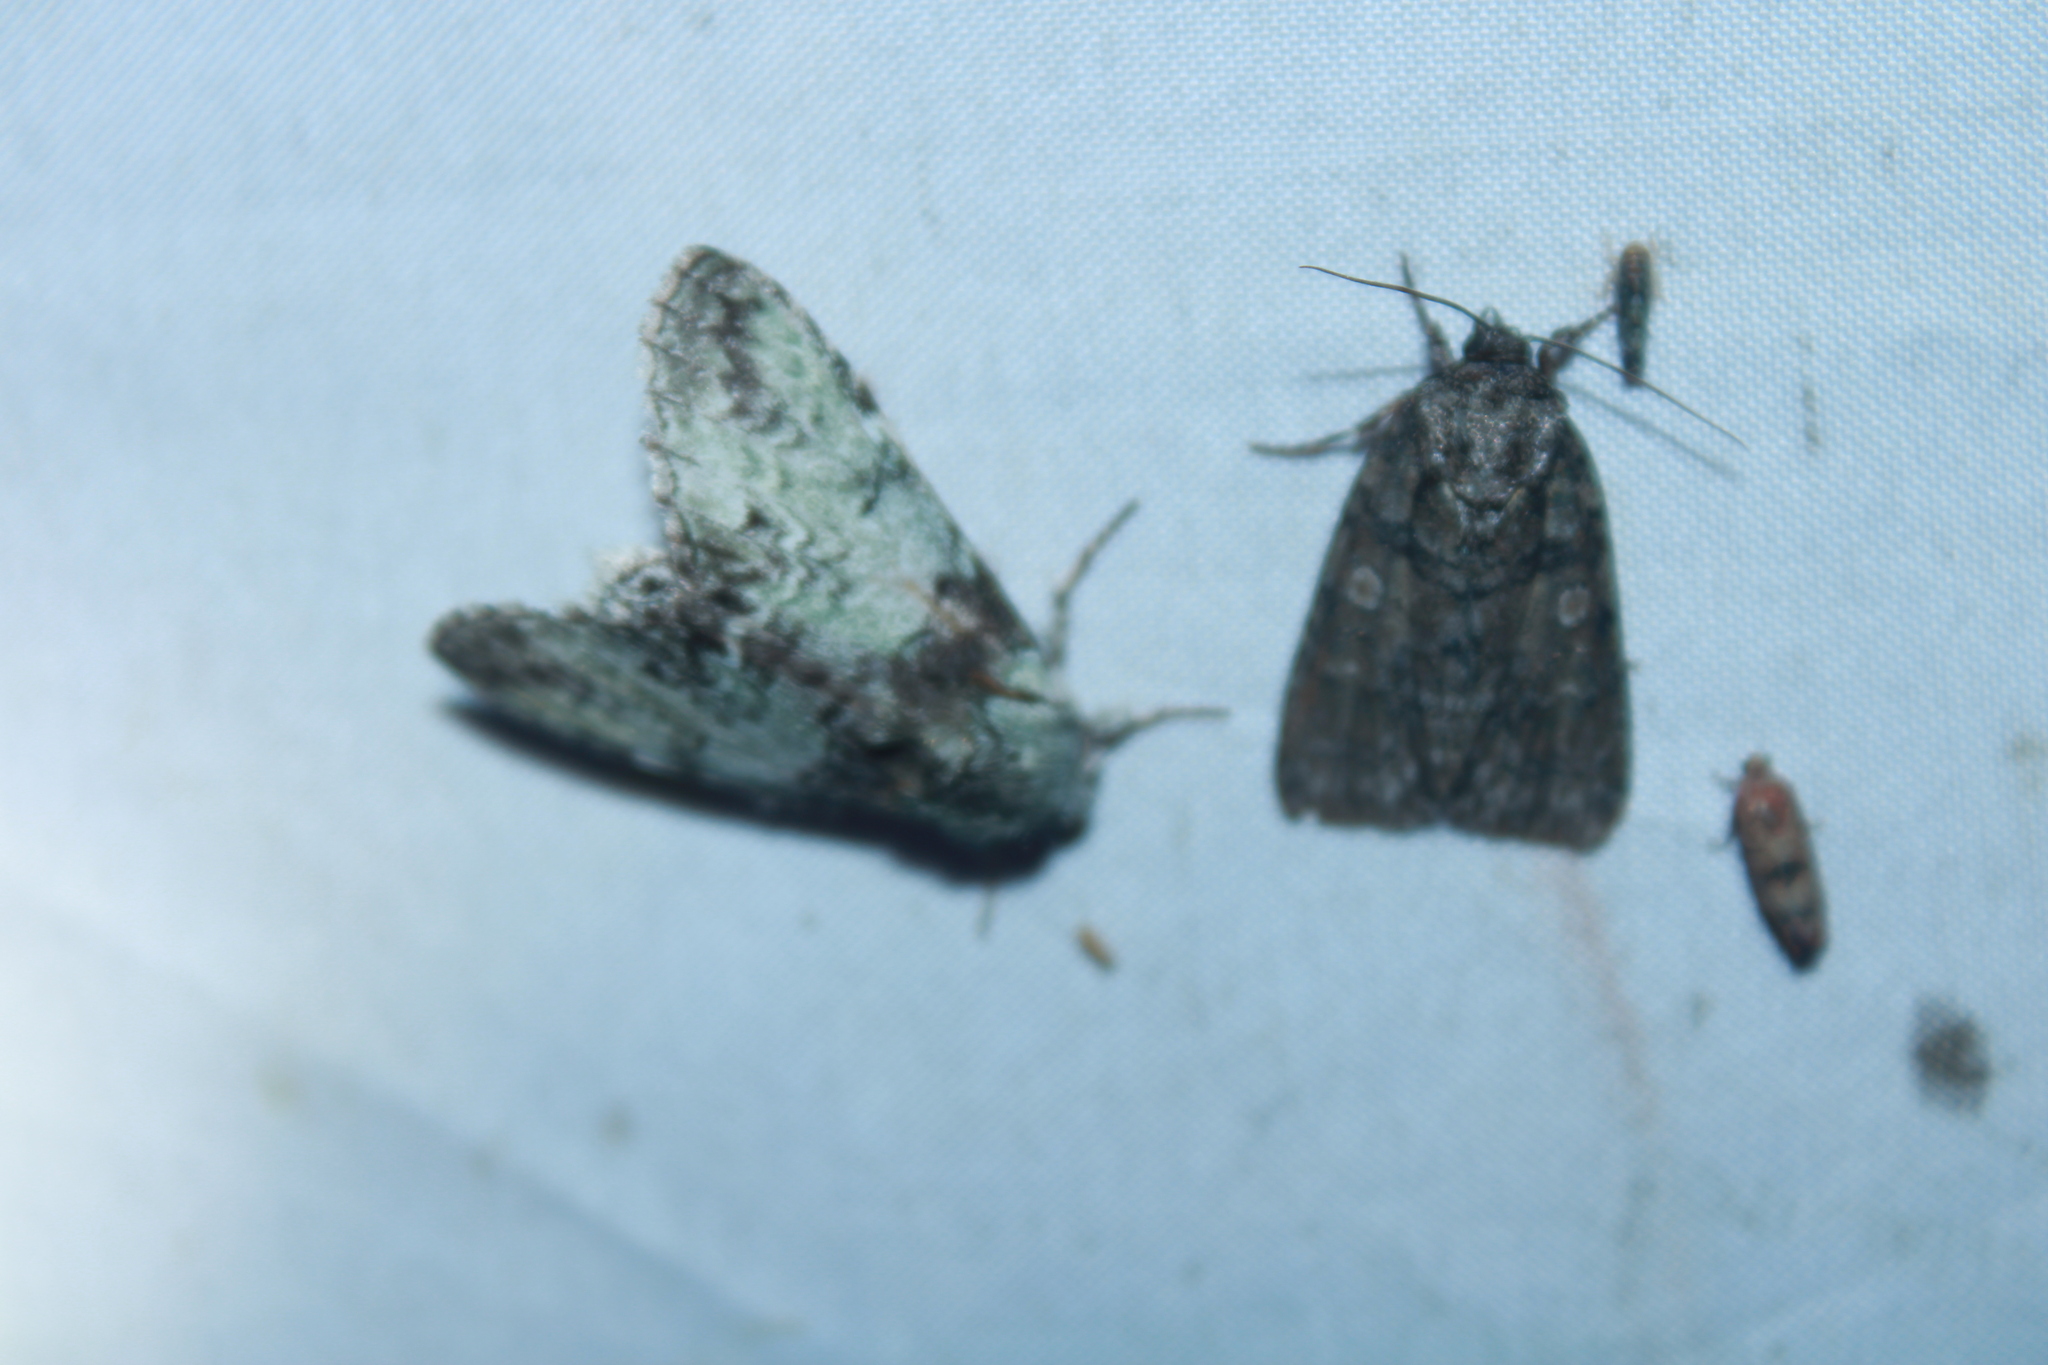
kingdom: Animalia
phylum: Arthropoda
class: Insecta
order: Lepidoptera
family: Notodontidae
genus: Macrurocampa
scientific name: Macrurocampa marthesia
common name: Mottled prominent
